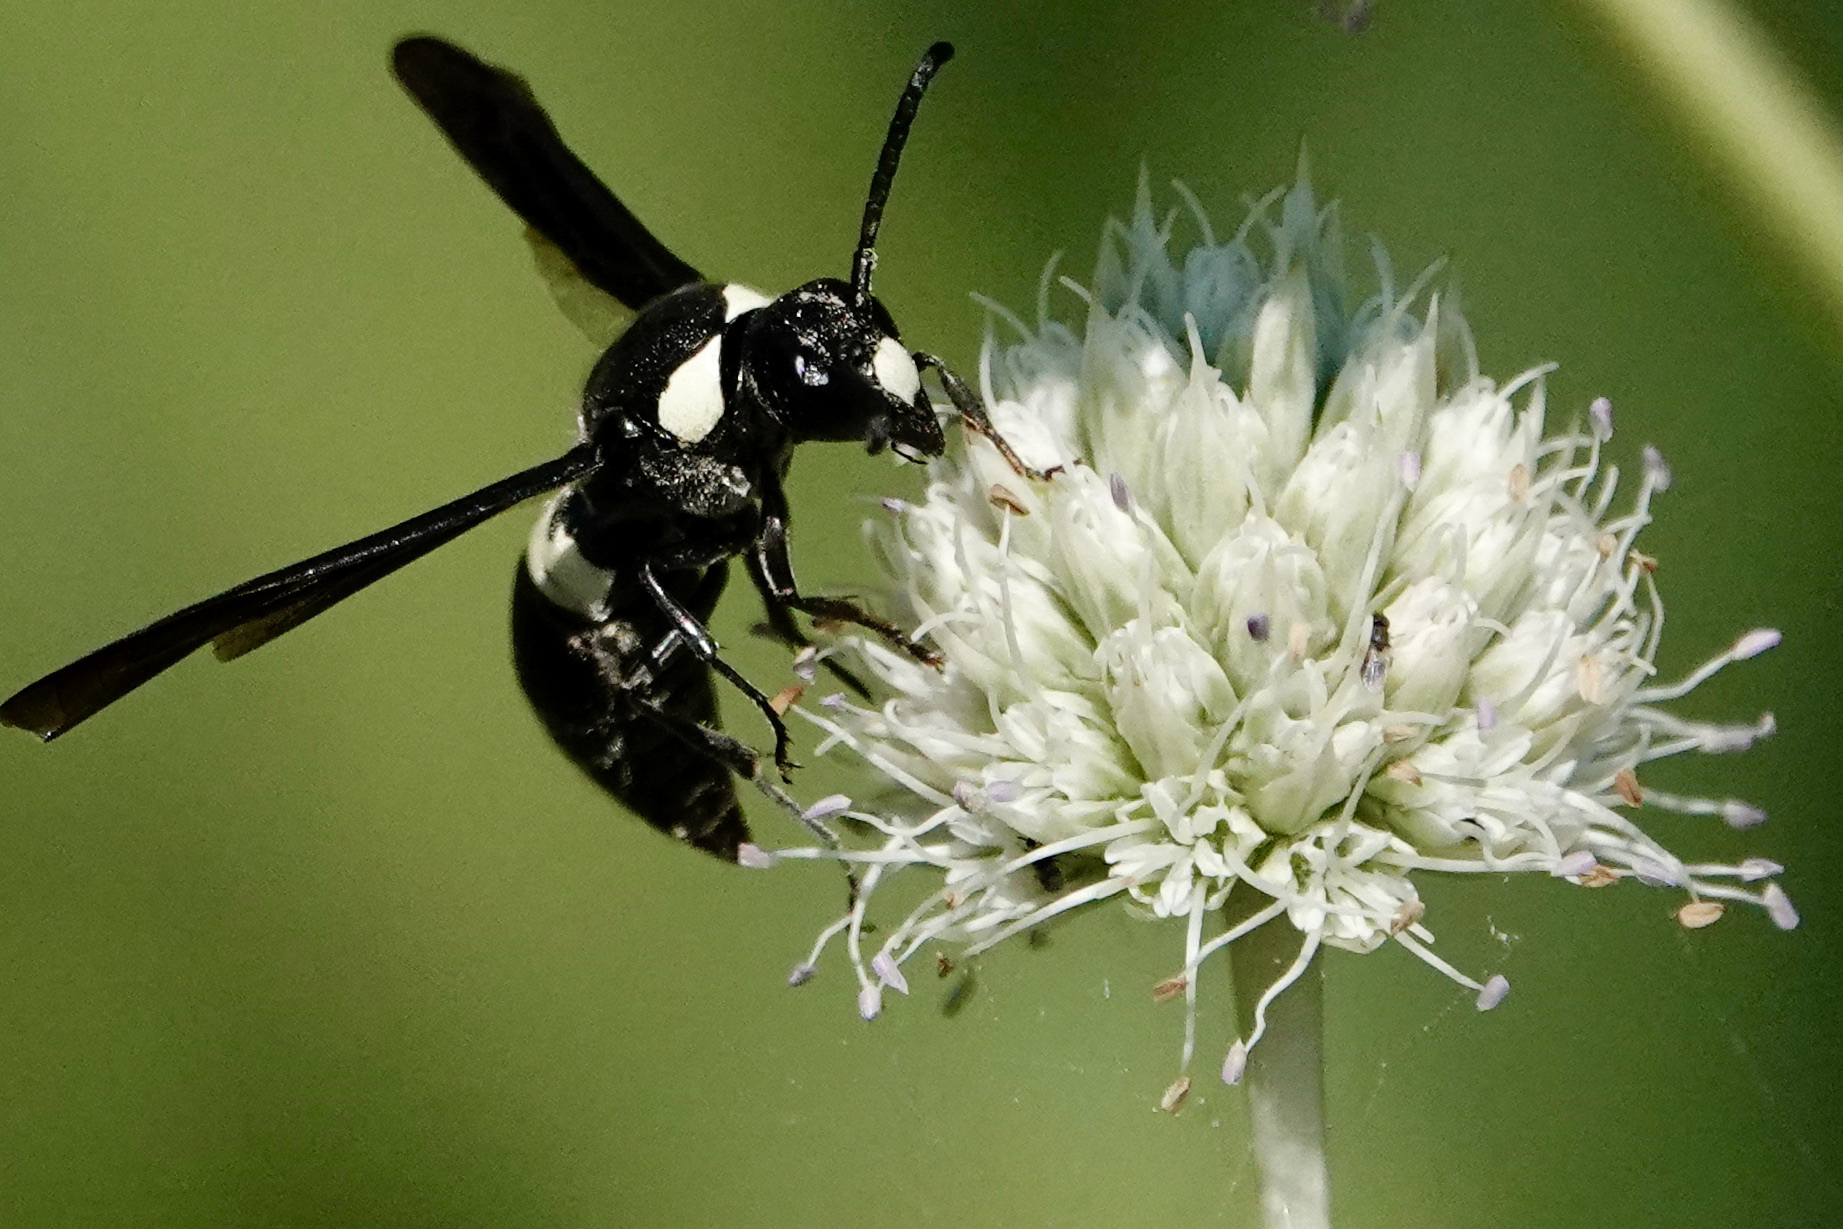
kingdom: Animalia
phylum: Arthropoda
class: Insecta
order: Hymenoptera
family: Eumenidae
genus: Monobia
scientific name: Monobia quadridens
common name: Four-toothed mason wasp
